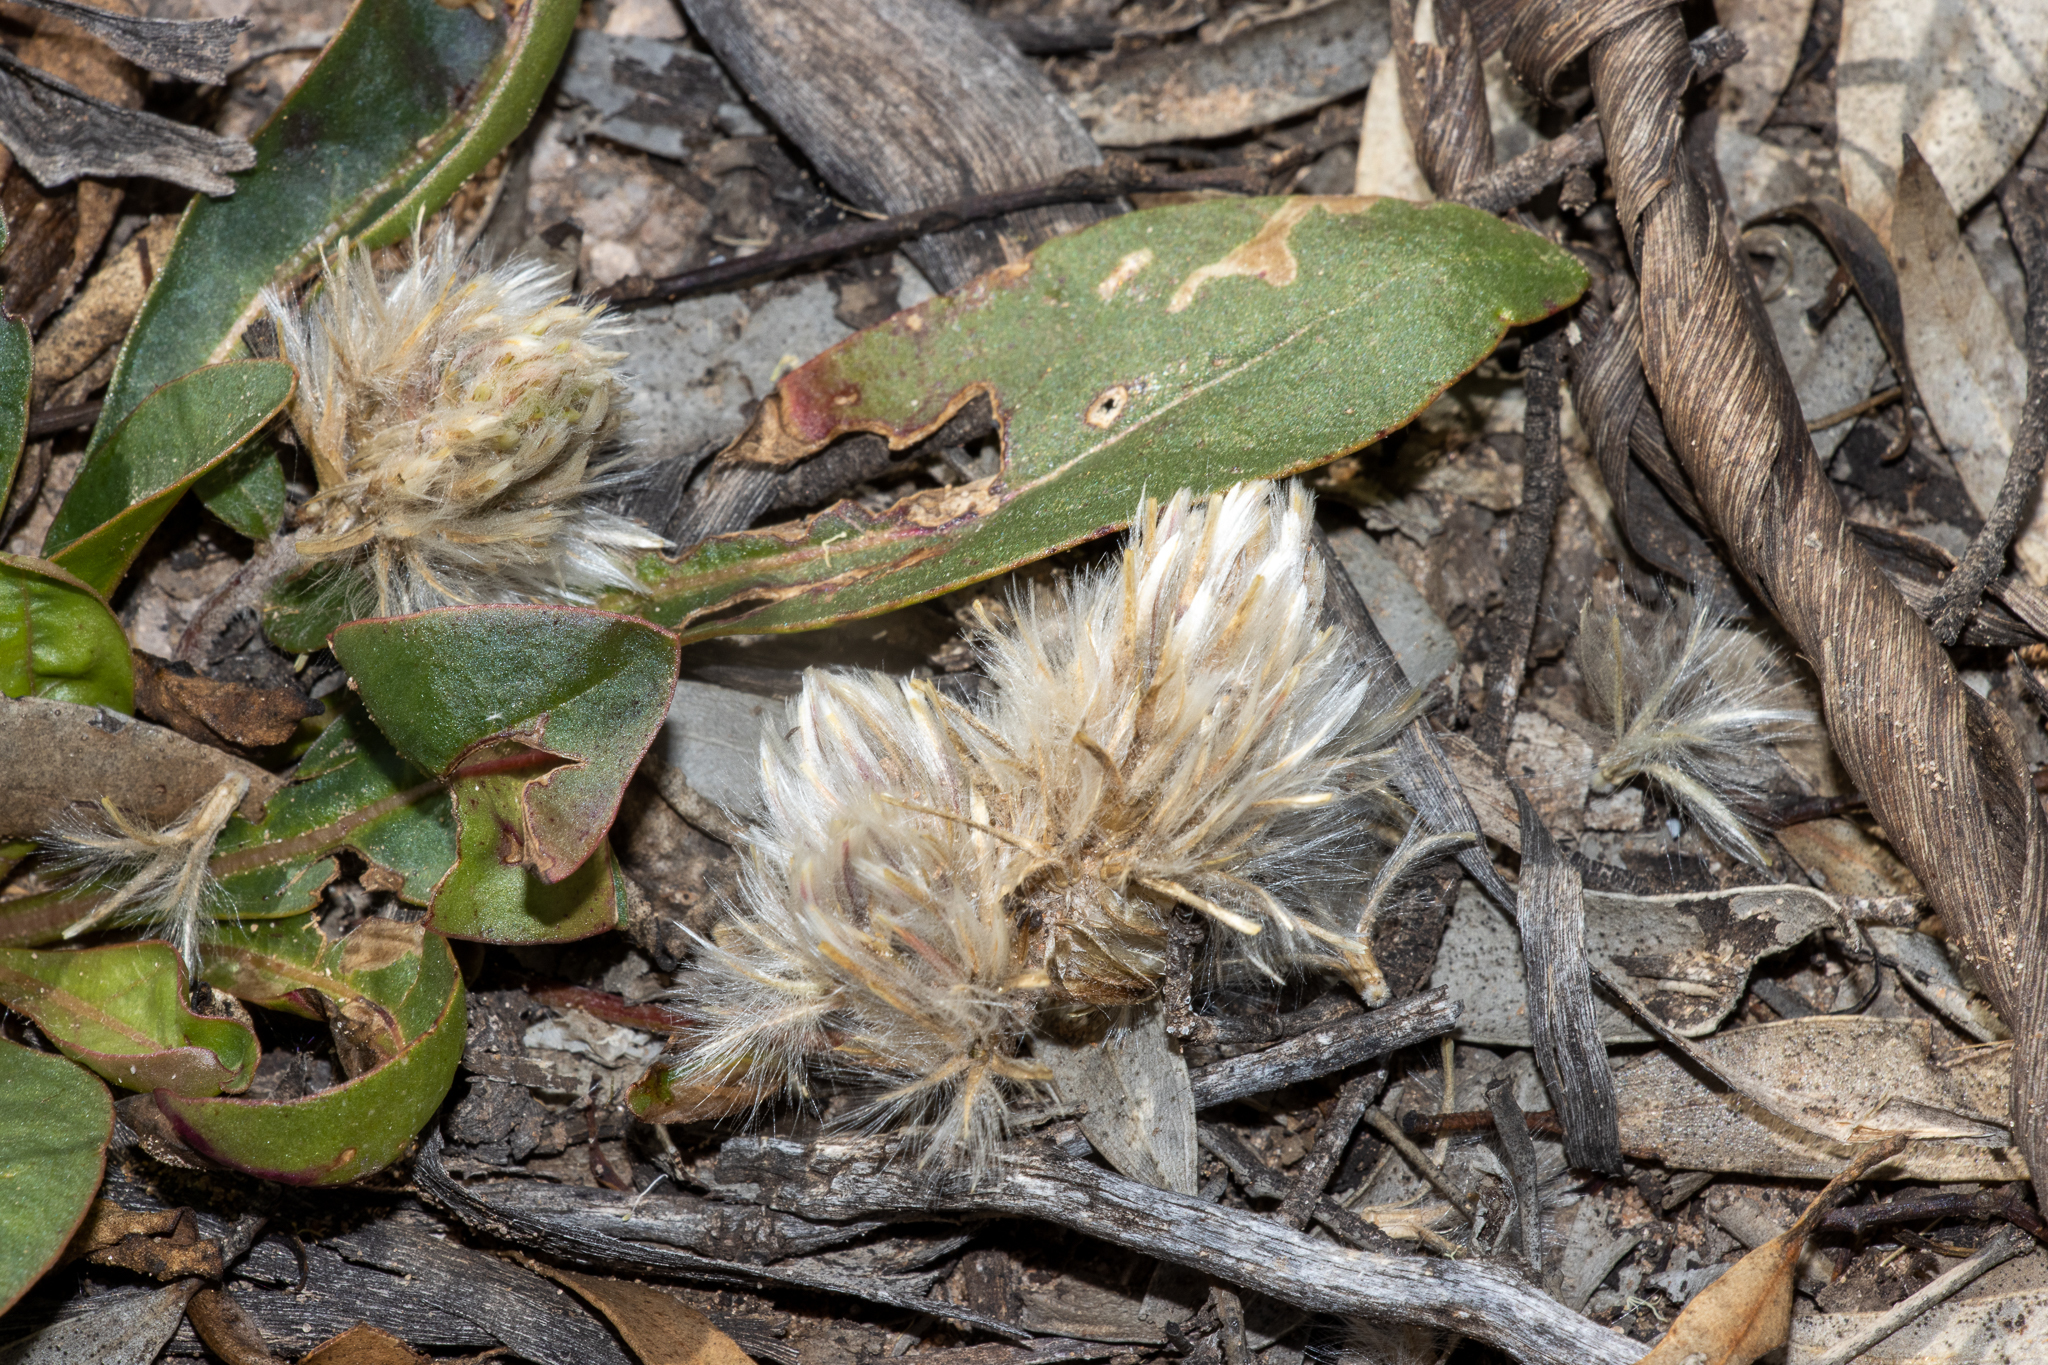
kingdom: Plantae
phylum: Tracheophyta
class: Magnoliopsida
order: Caryophyllales
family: Amaranthaceae
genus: Ptilotus
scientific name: Ptilotus seminudus
